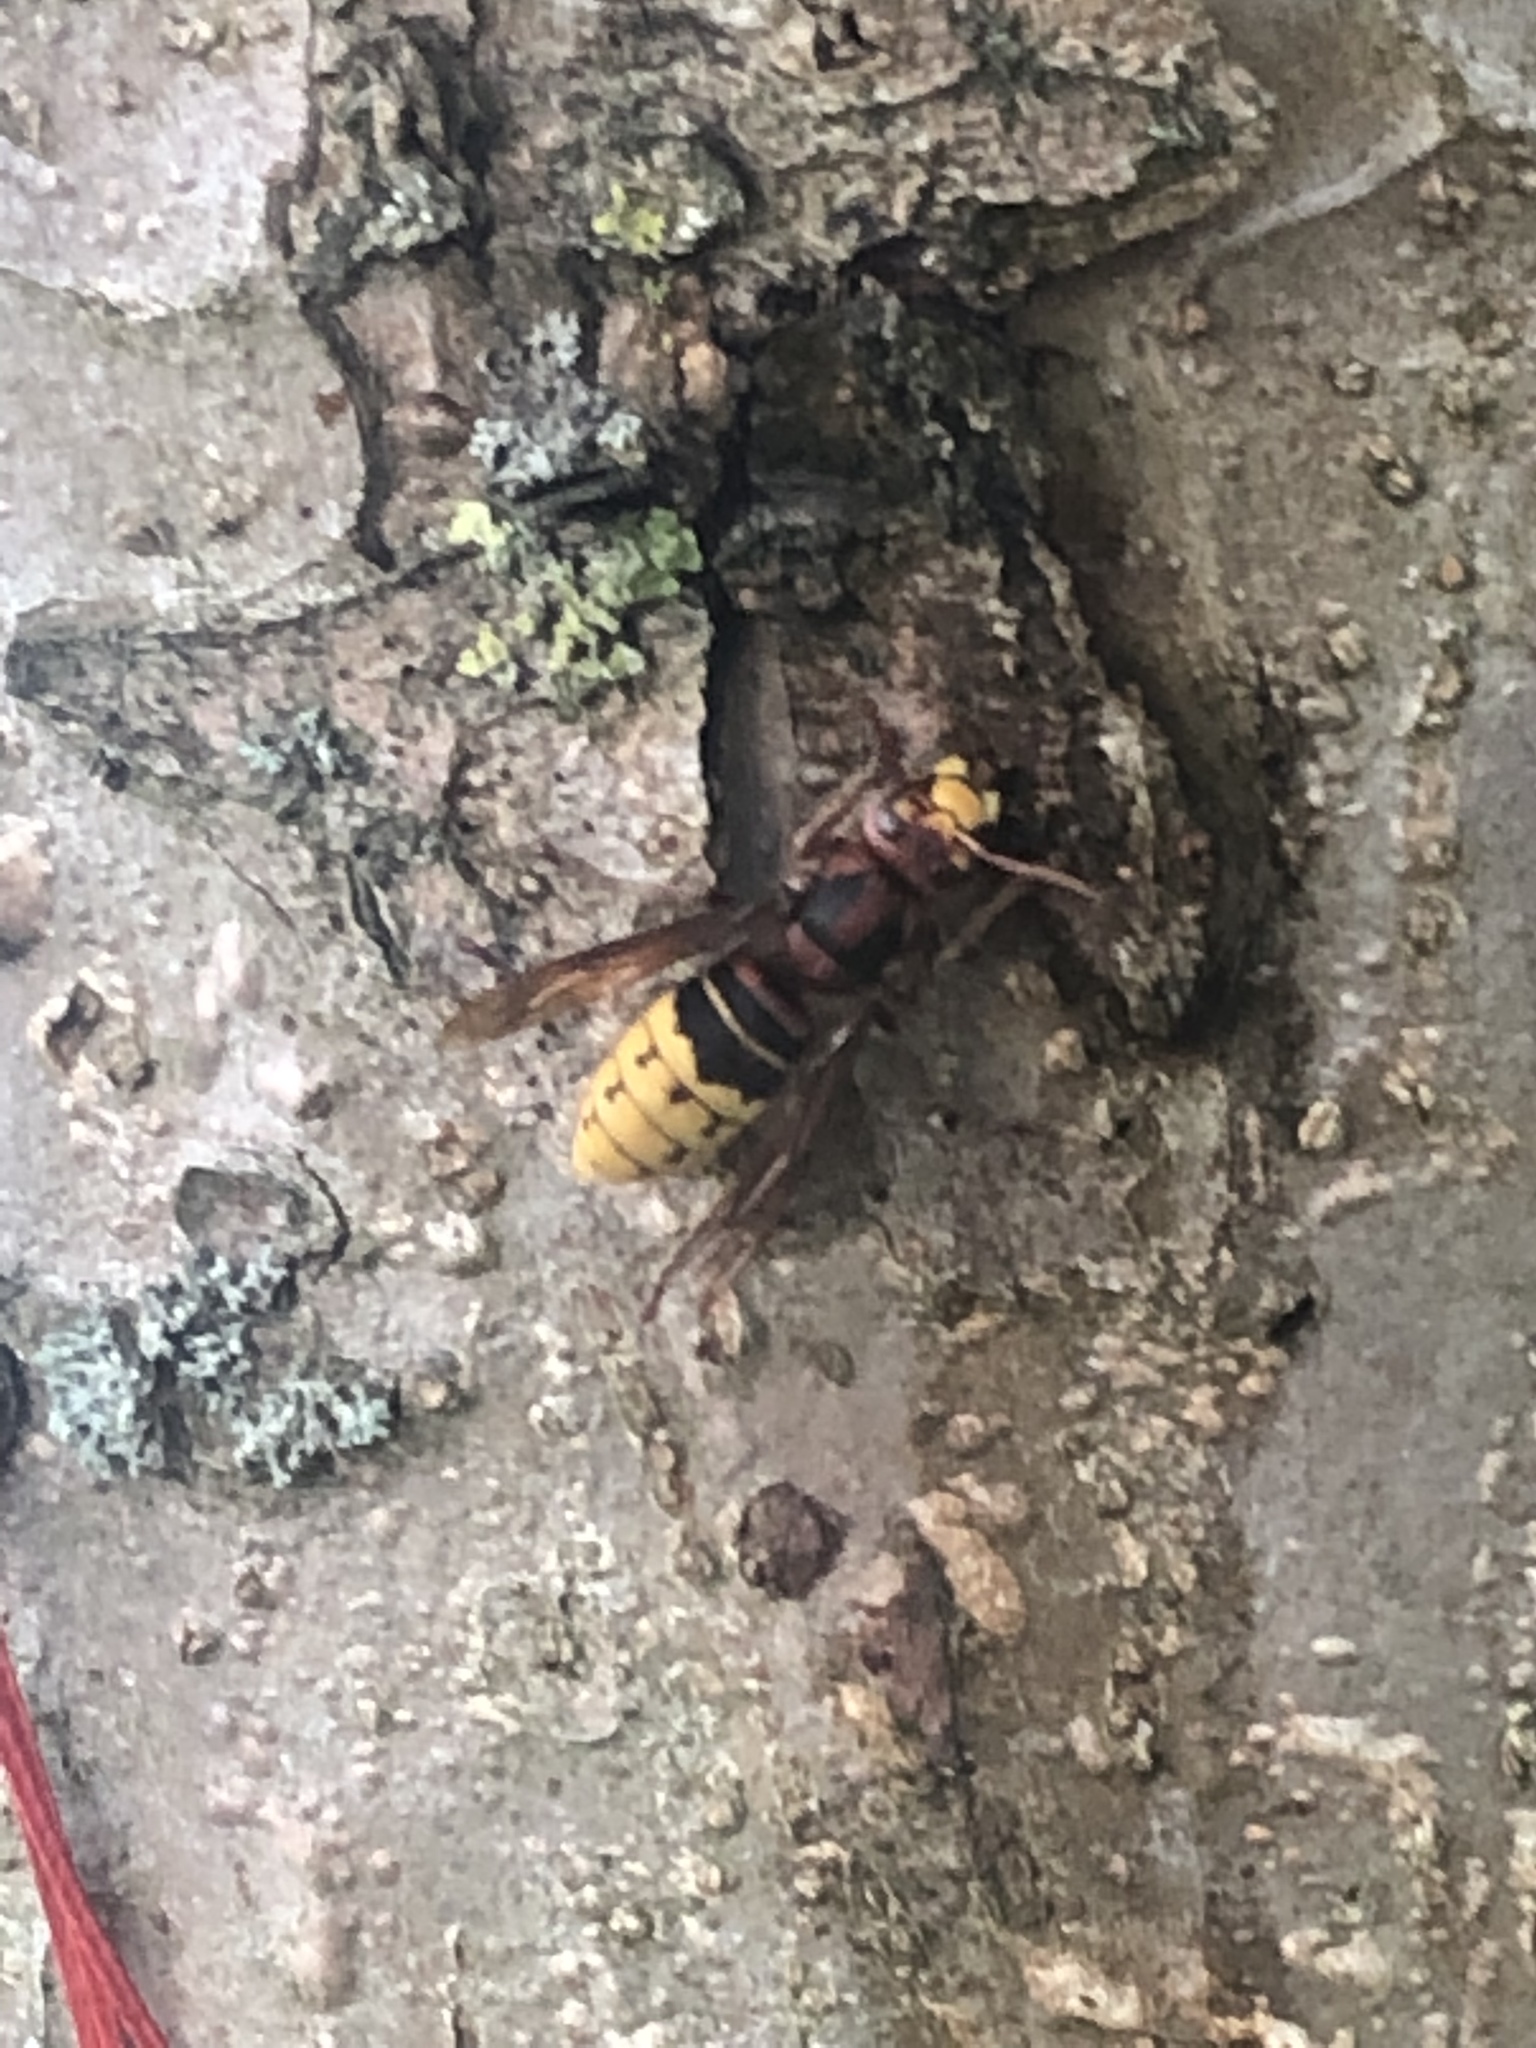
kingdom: Animalia
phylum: Arthropoda
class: Insecta
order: Hymenoptera
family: Vespidae
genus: Vespa
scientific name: Vespa crabro
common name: Hornet
